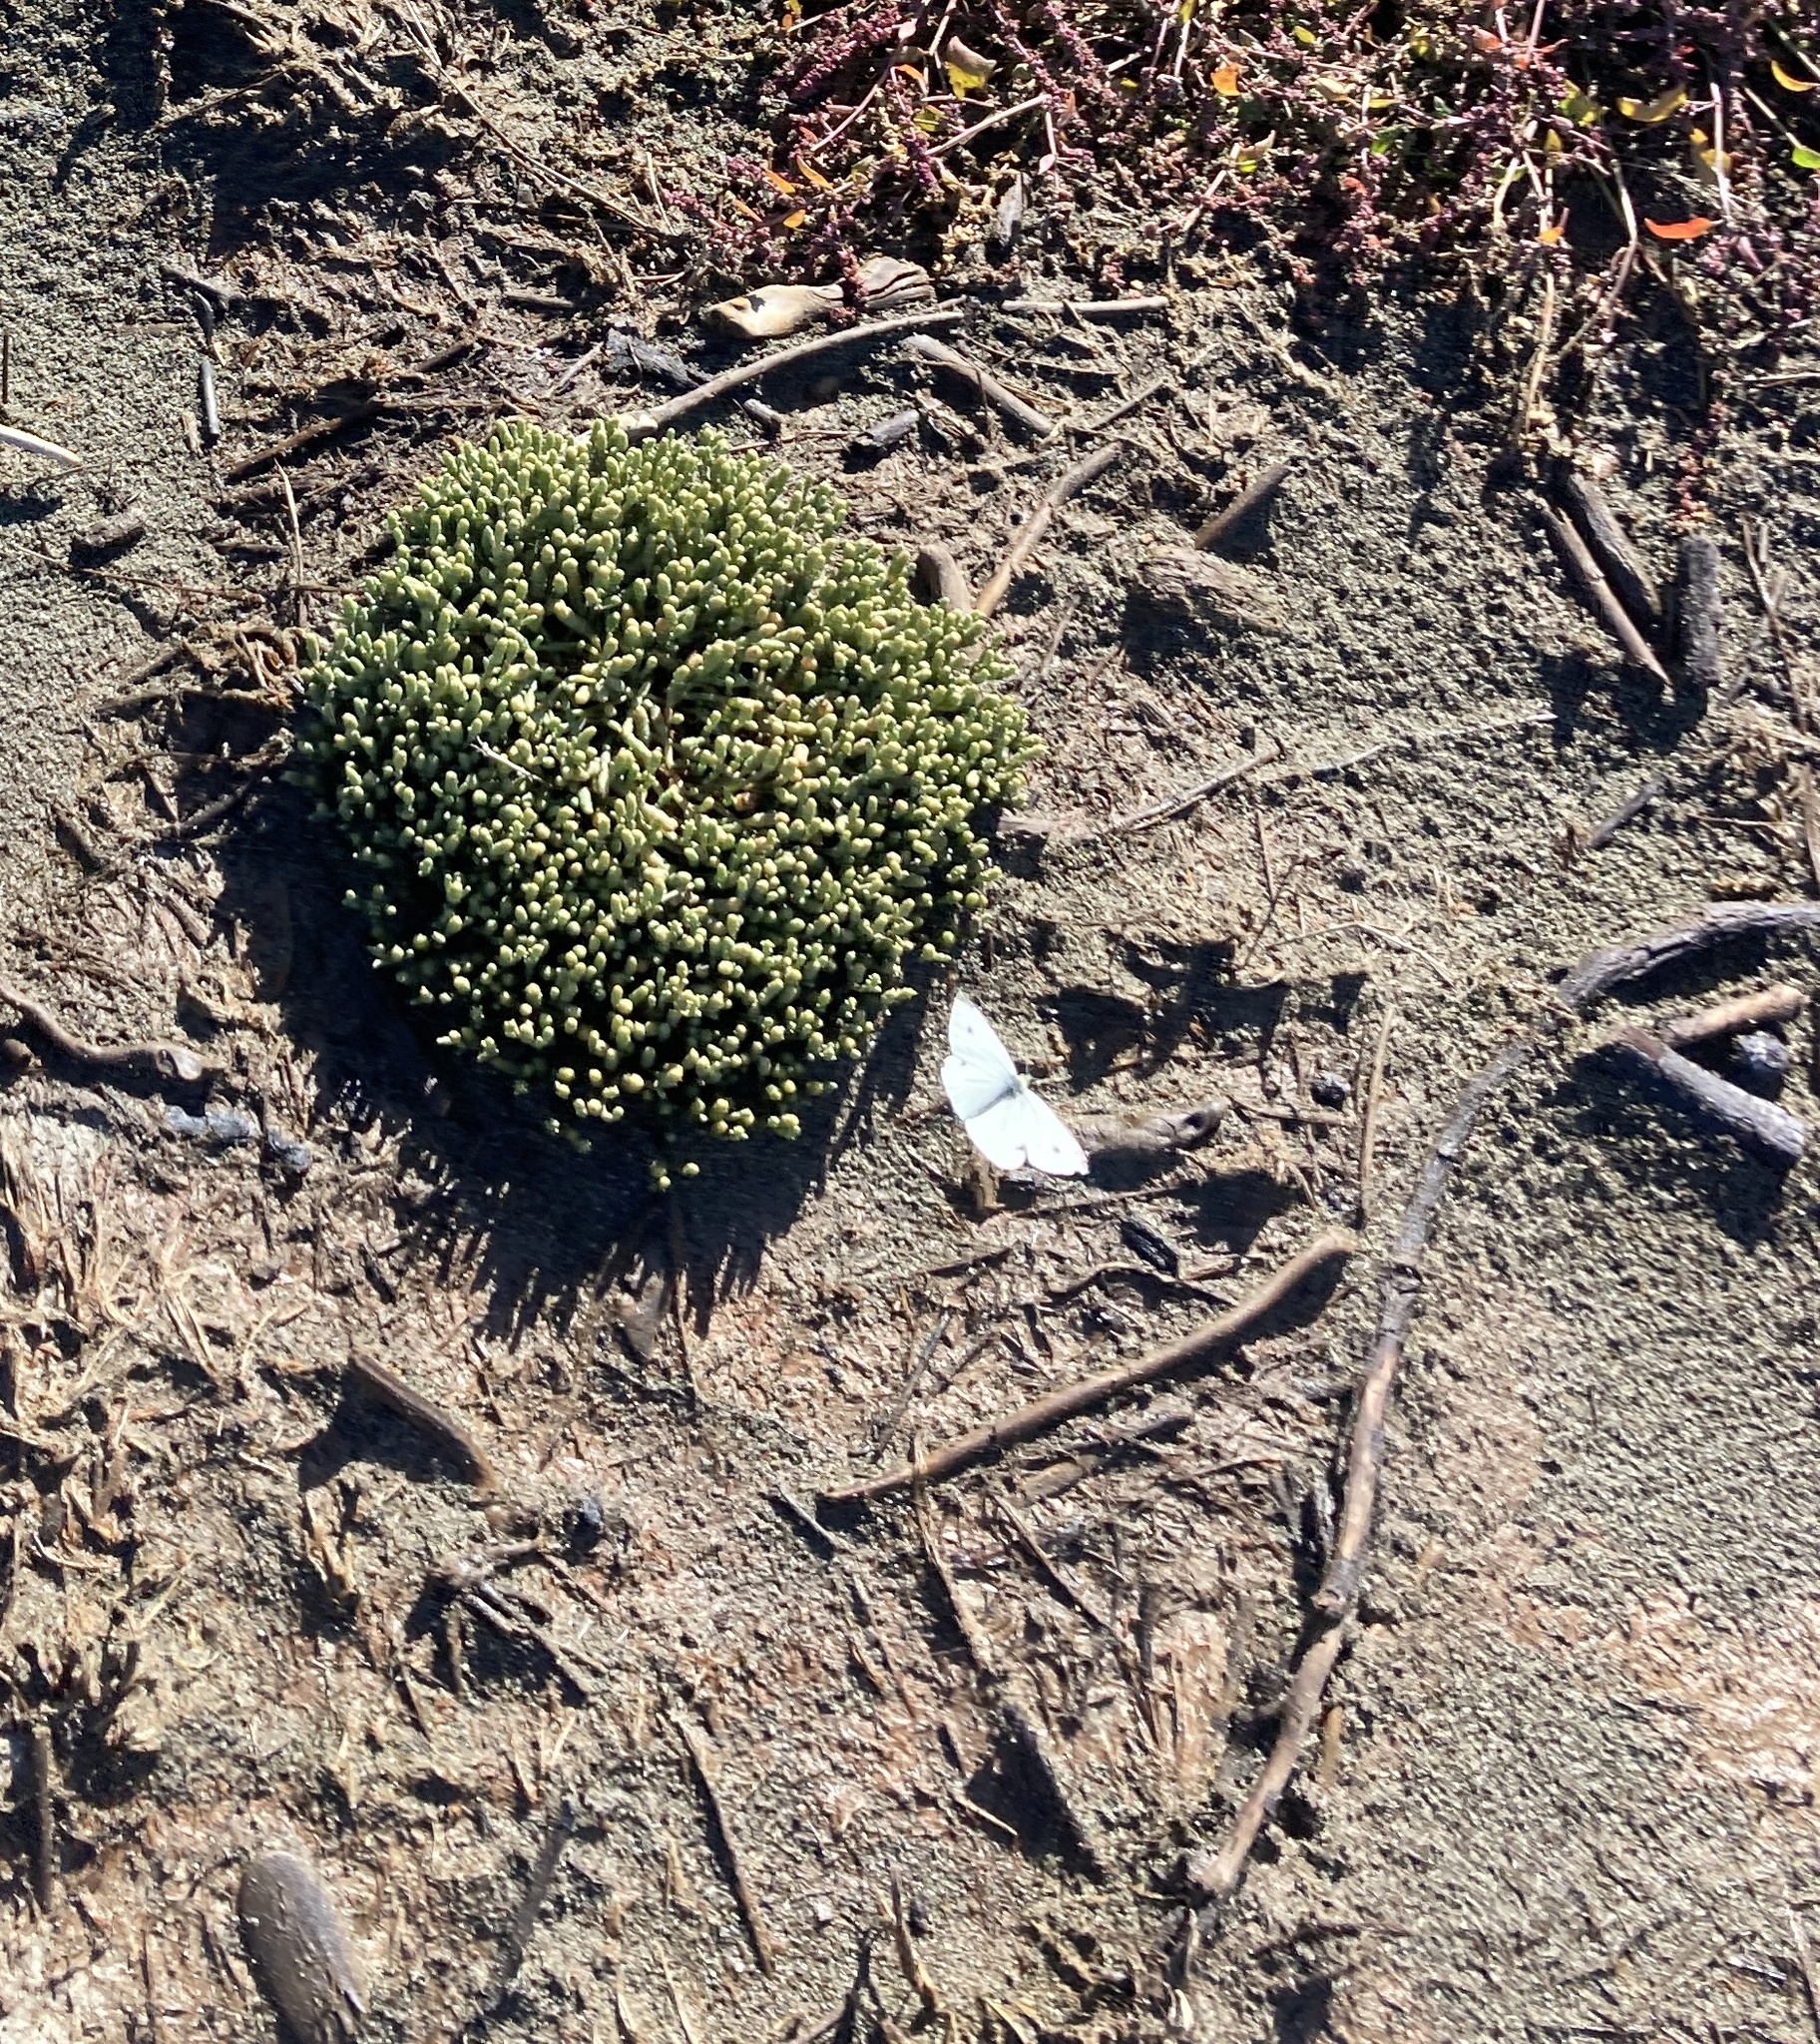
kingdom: Animalia
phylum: Arthropoda
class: Insecta
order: Lepidoptera
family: Pieridae
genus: Pieris
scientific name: Pieris rapae
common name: Small white
